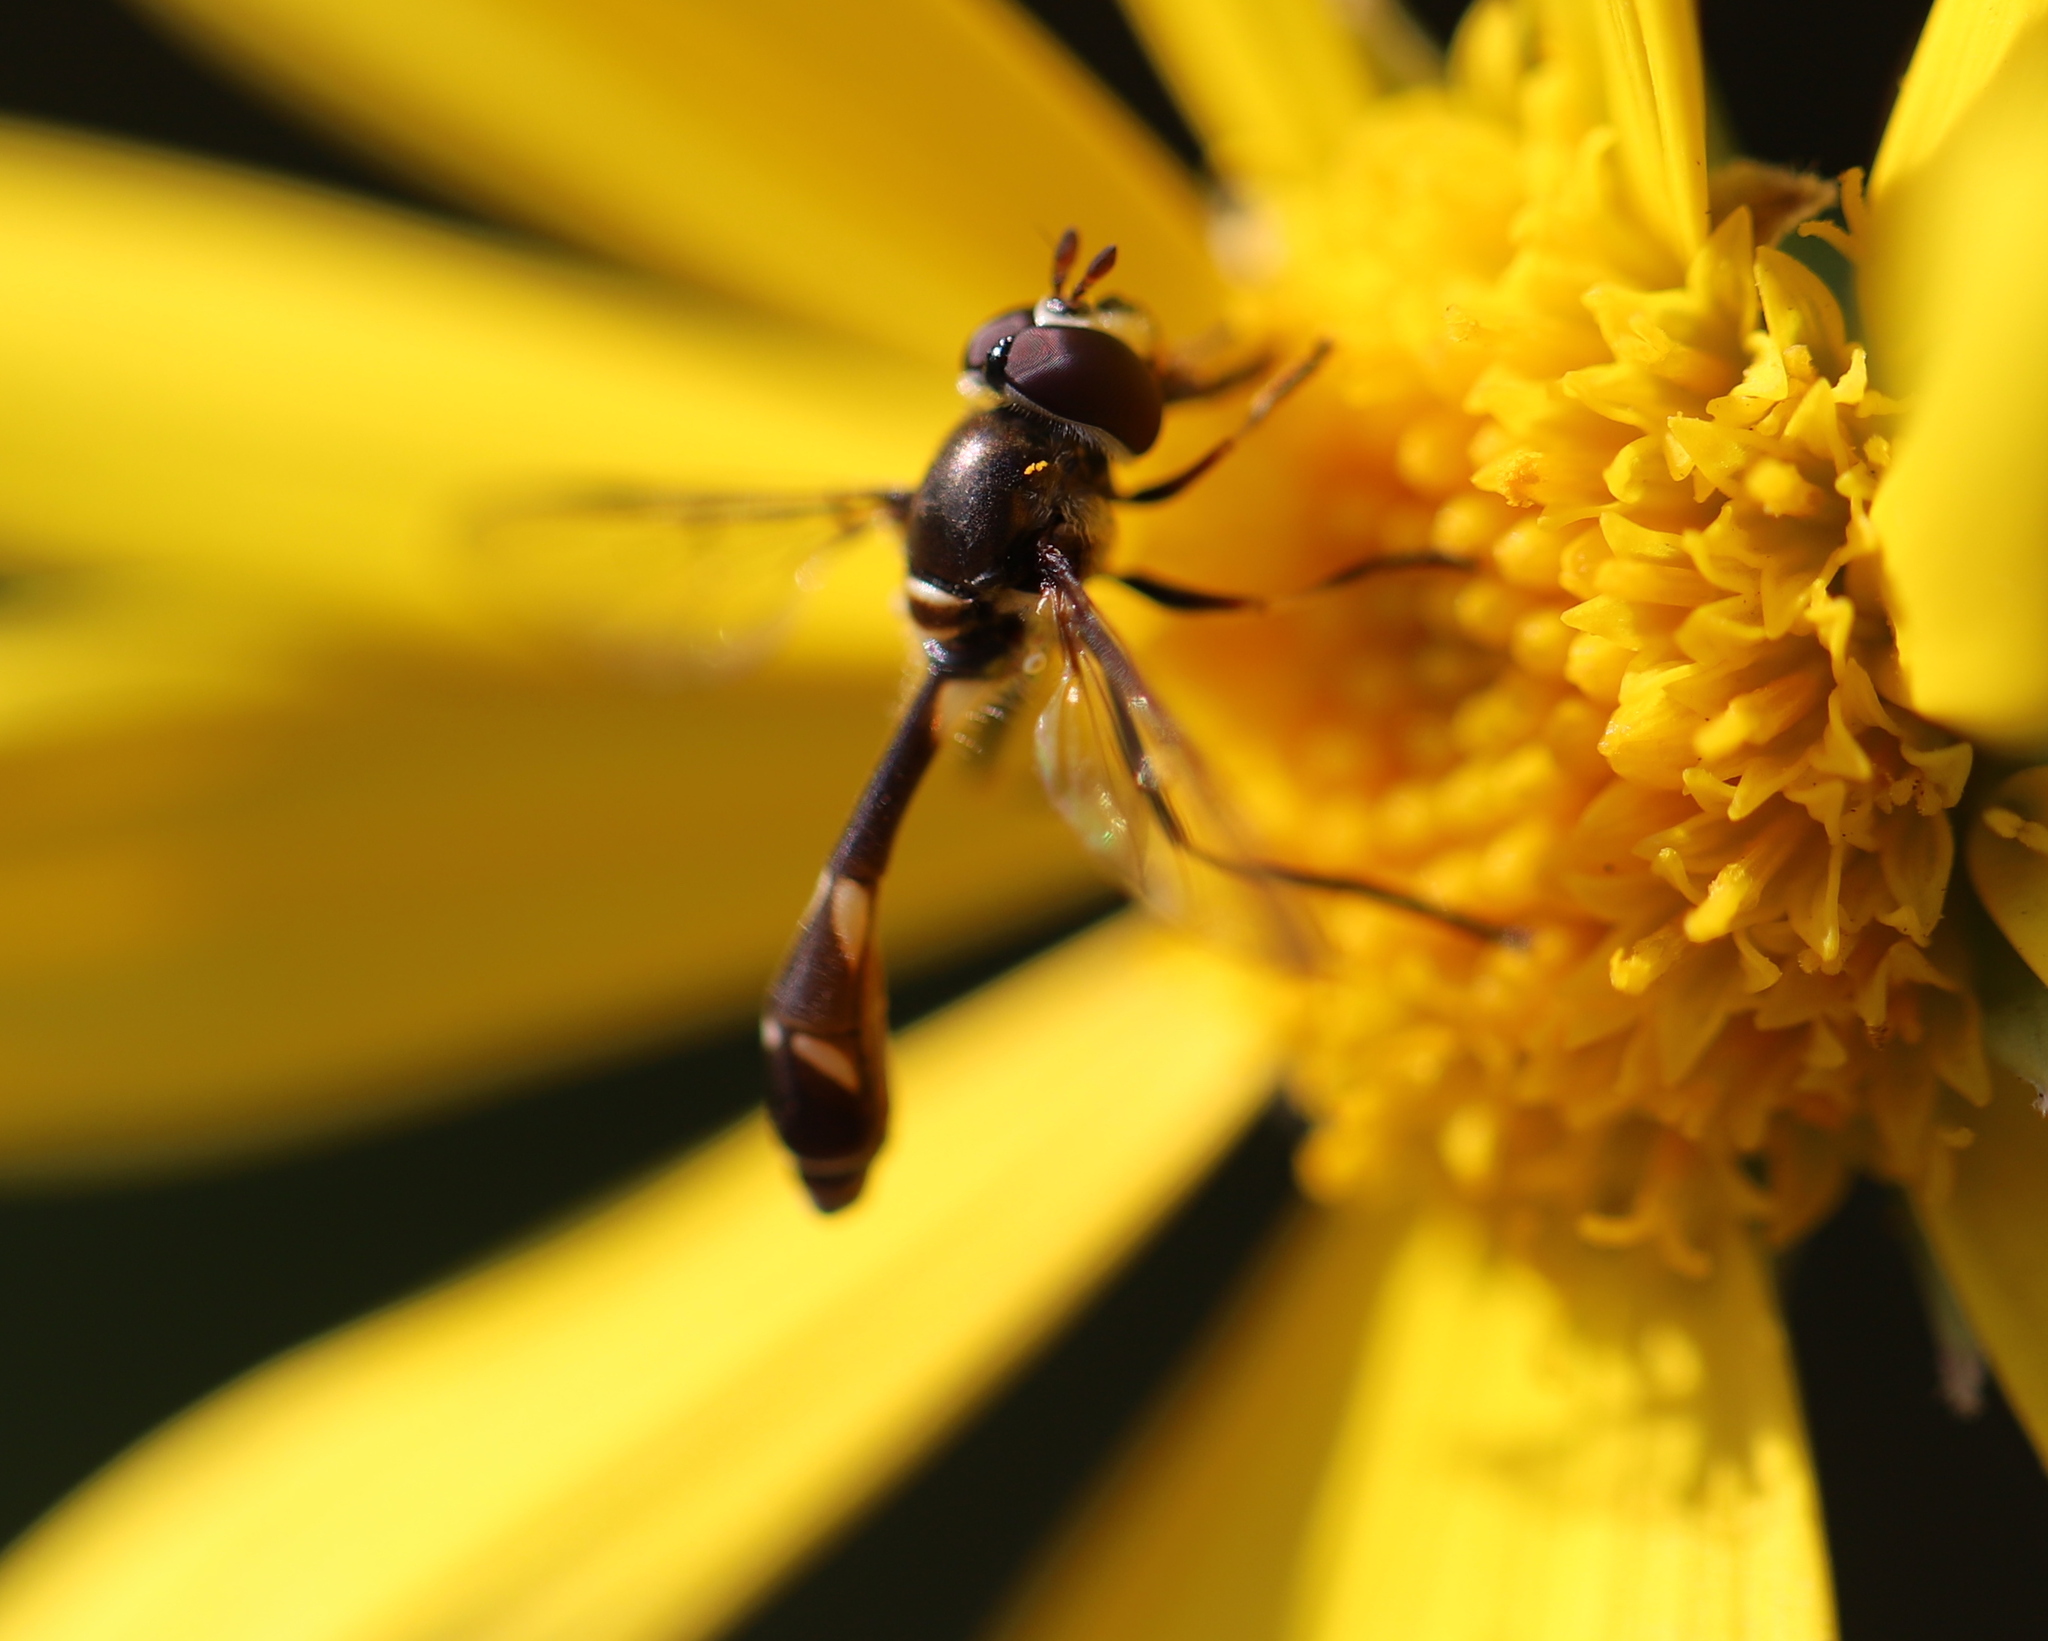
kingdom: Animalia
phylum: Arthropoda
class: Insecta
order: Diptera
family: Syrphidae
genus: Dioprosopa
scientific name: Dioprosopa clavatus
